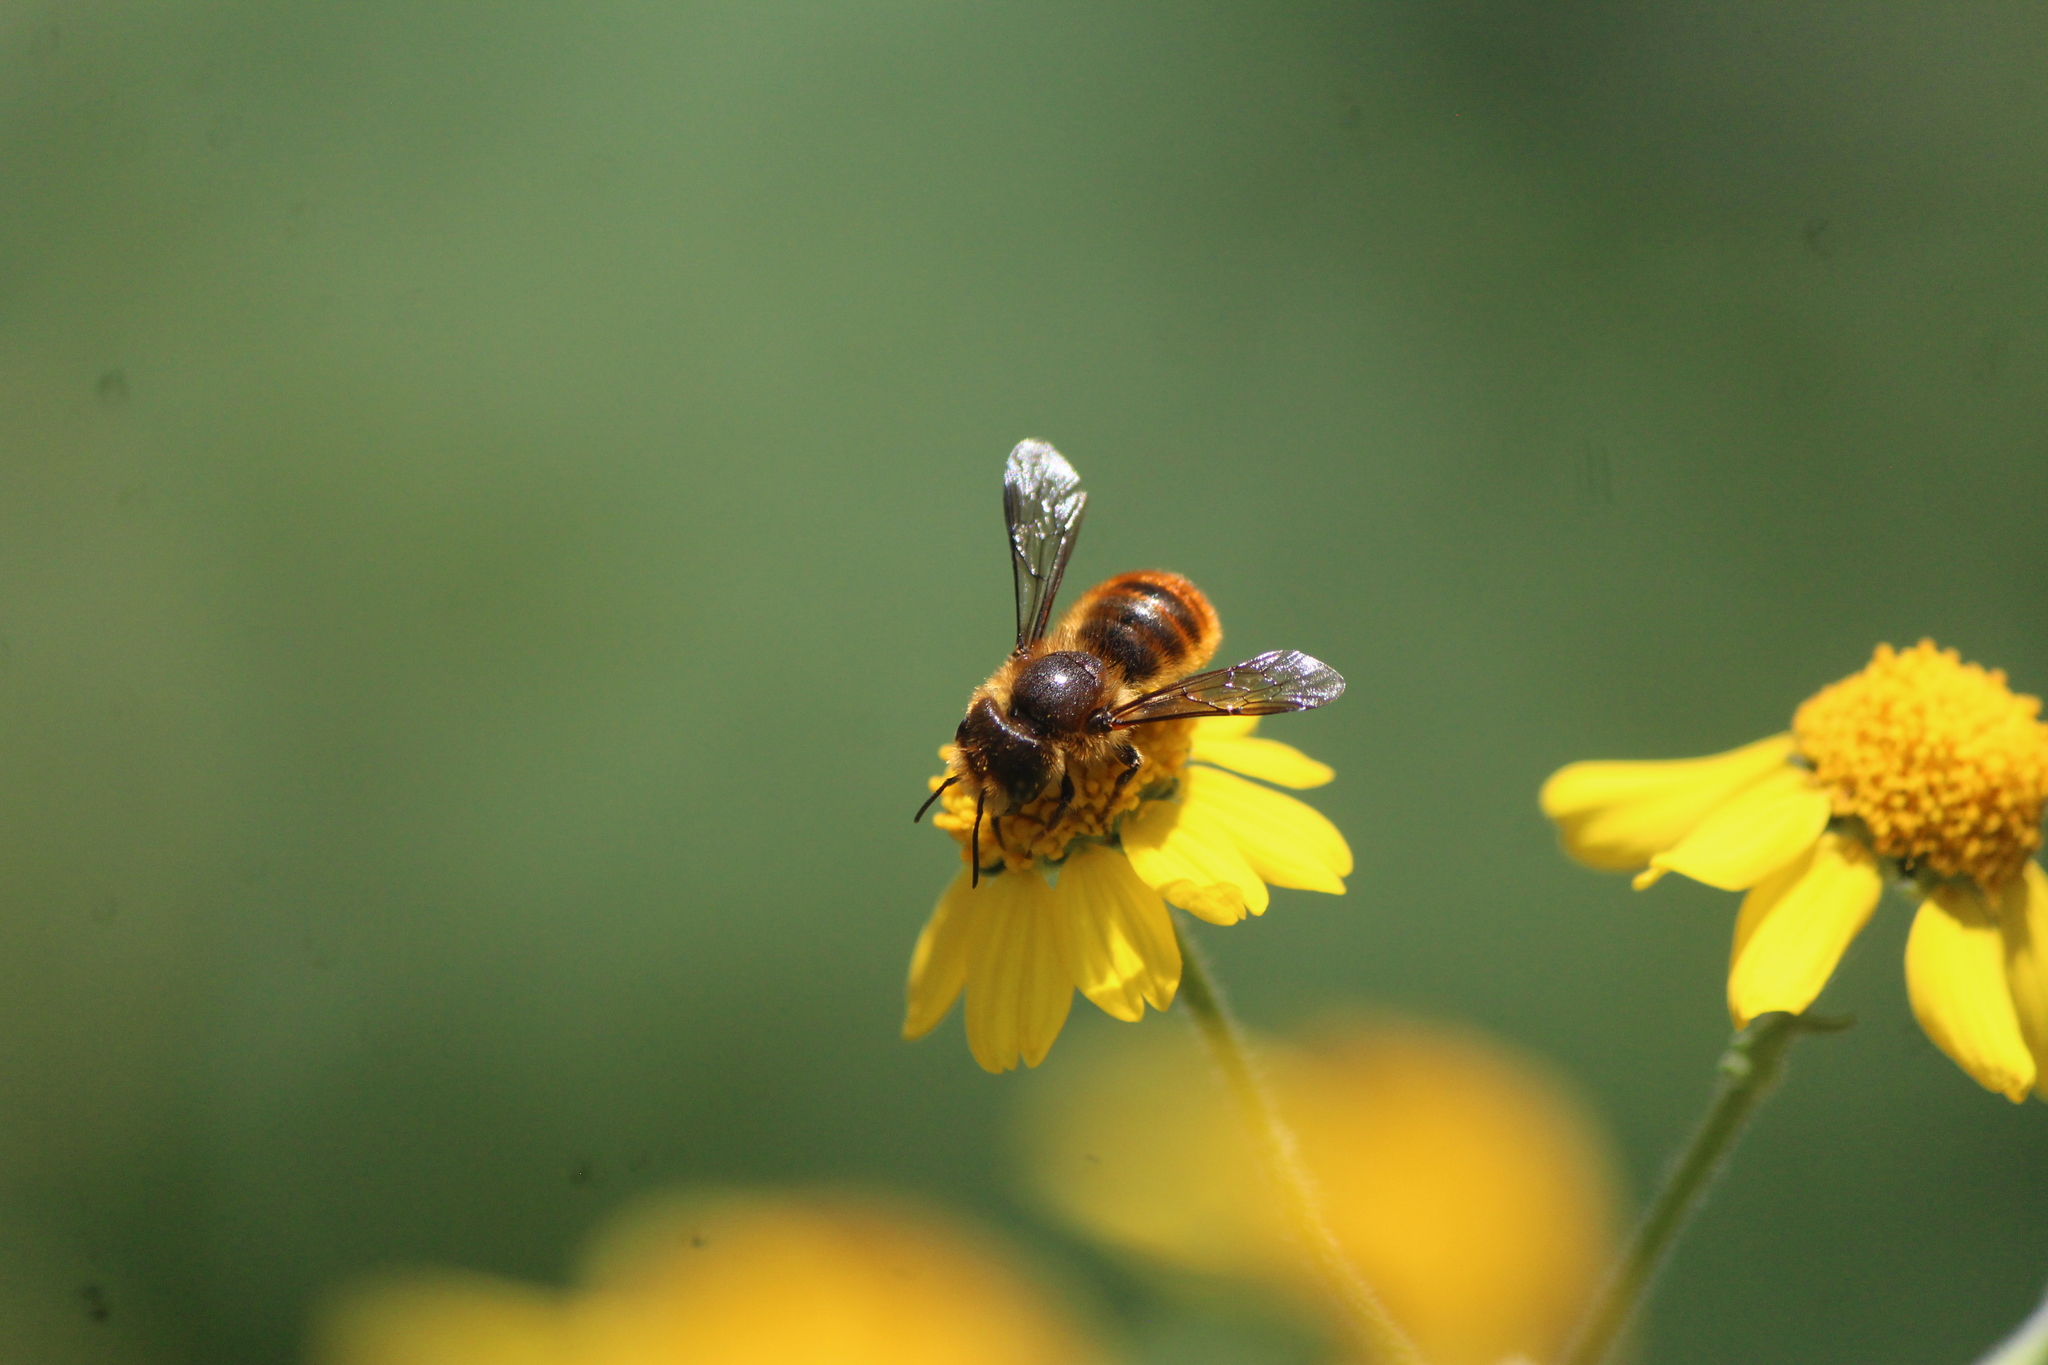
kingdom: Animalia
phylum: Arthropoda
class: Insecta
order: Hymenoptera
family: Megachilidae
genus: Osmia
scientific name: Osmia azteca
